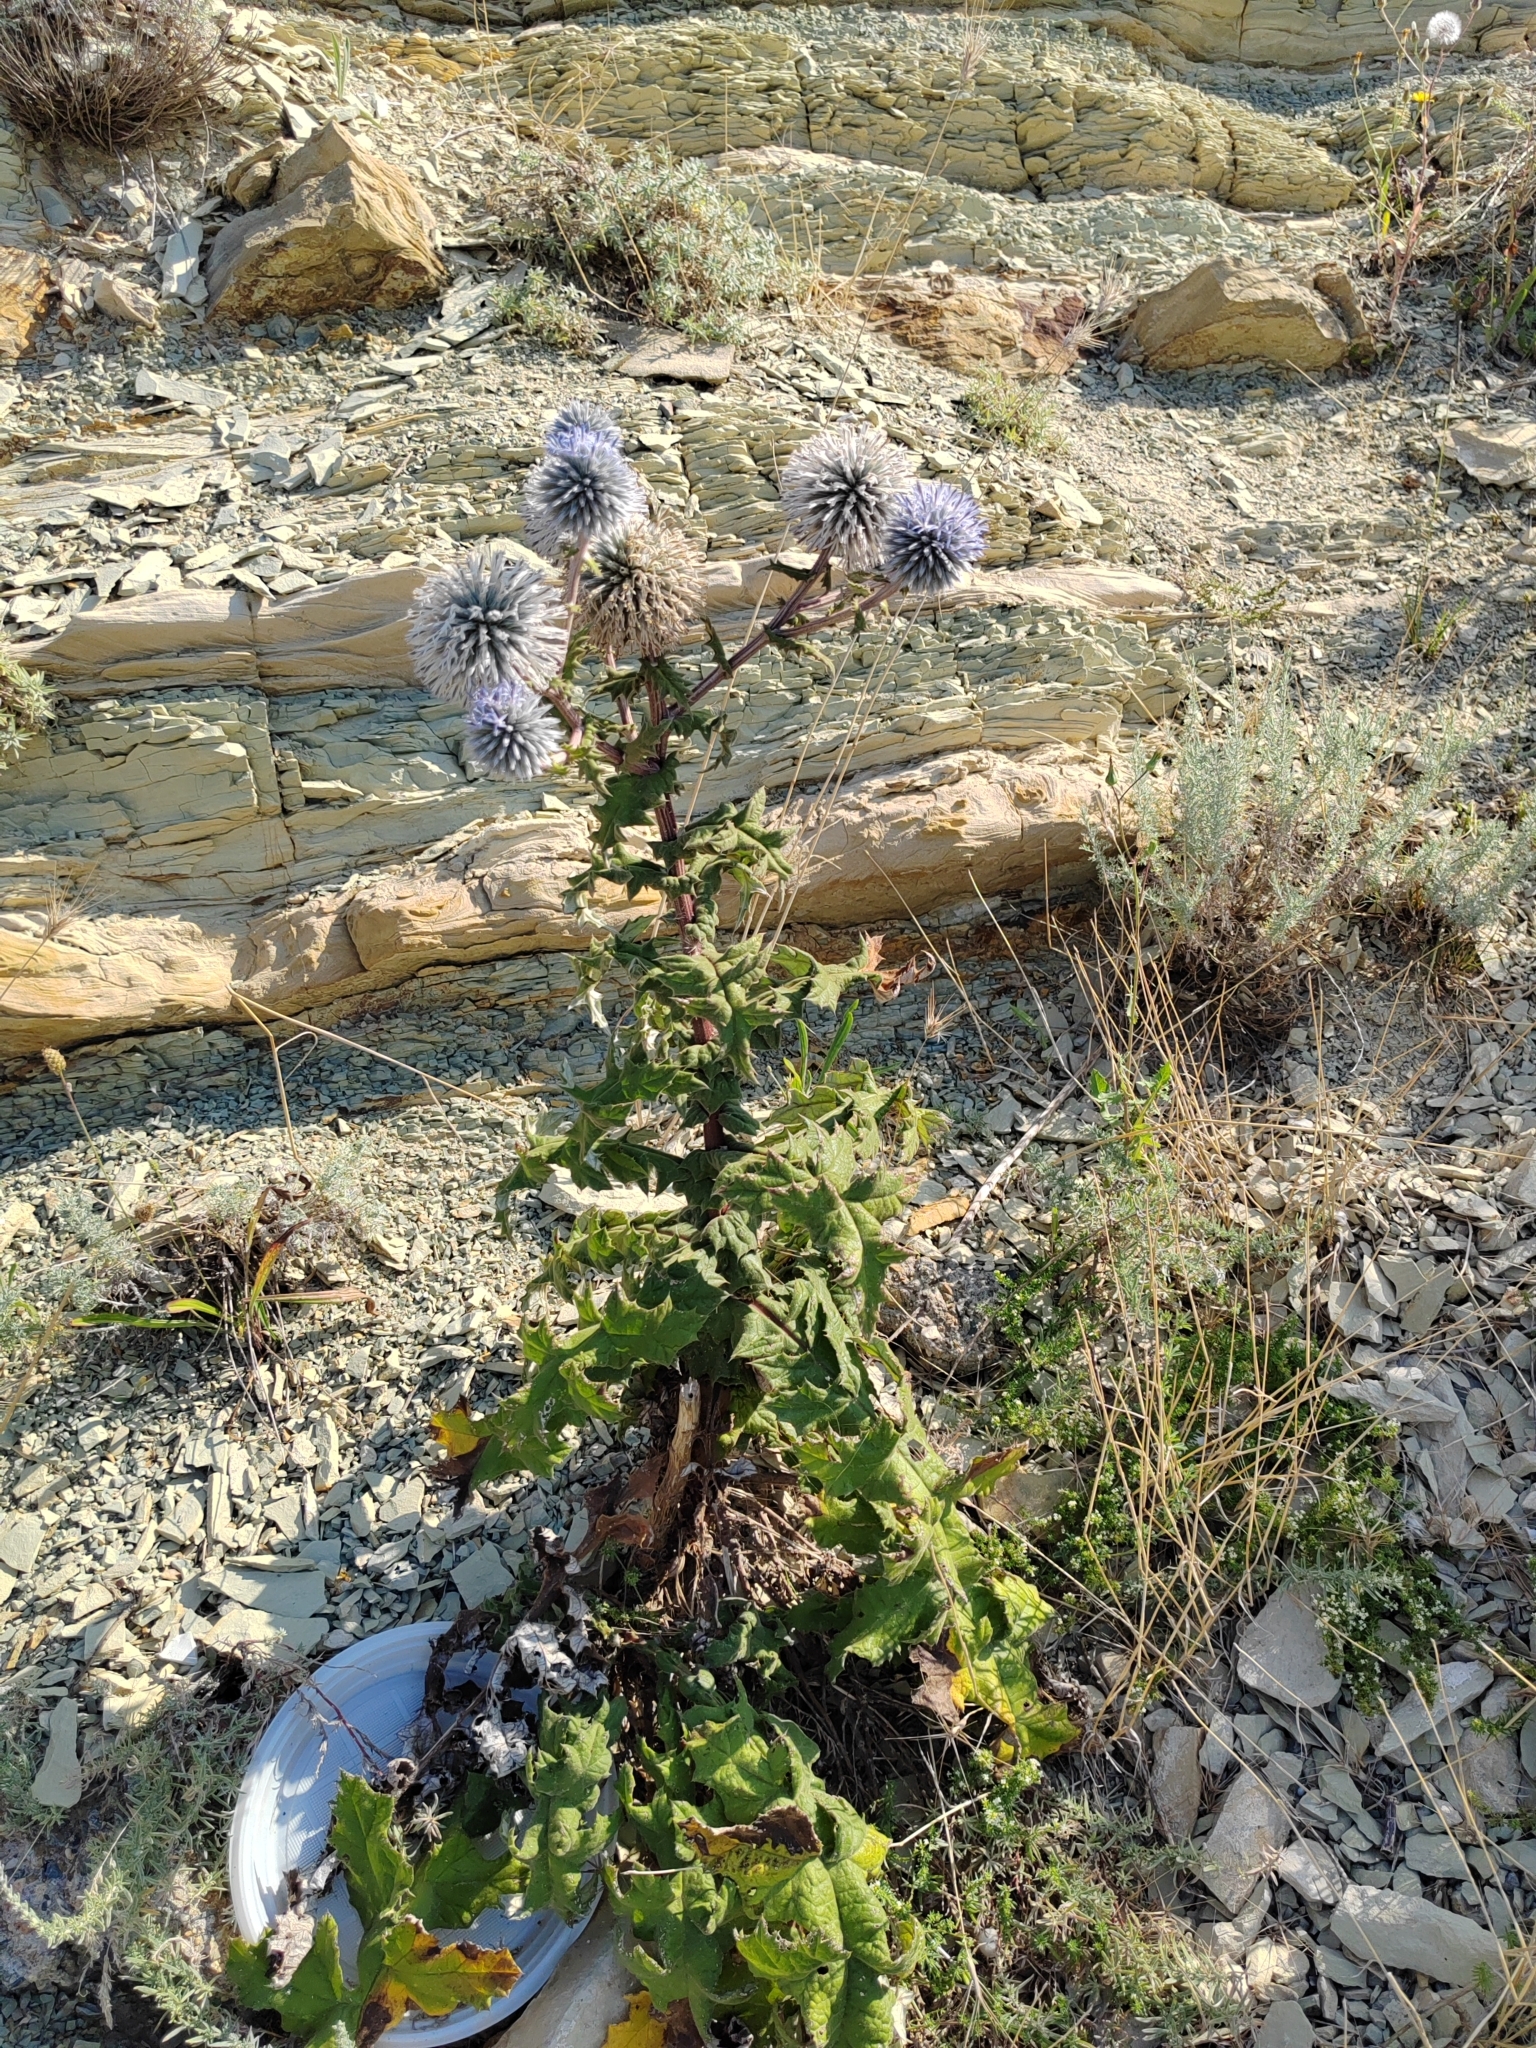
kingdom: Plantae
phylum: Tracheophyta
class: Magnoliopsida
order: Asterales
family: Asteraceae
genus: Echinops
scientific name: Echinops sphaerocephalus
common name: Glandular globe-thistle
